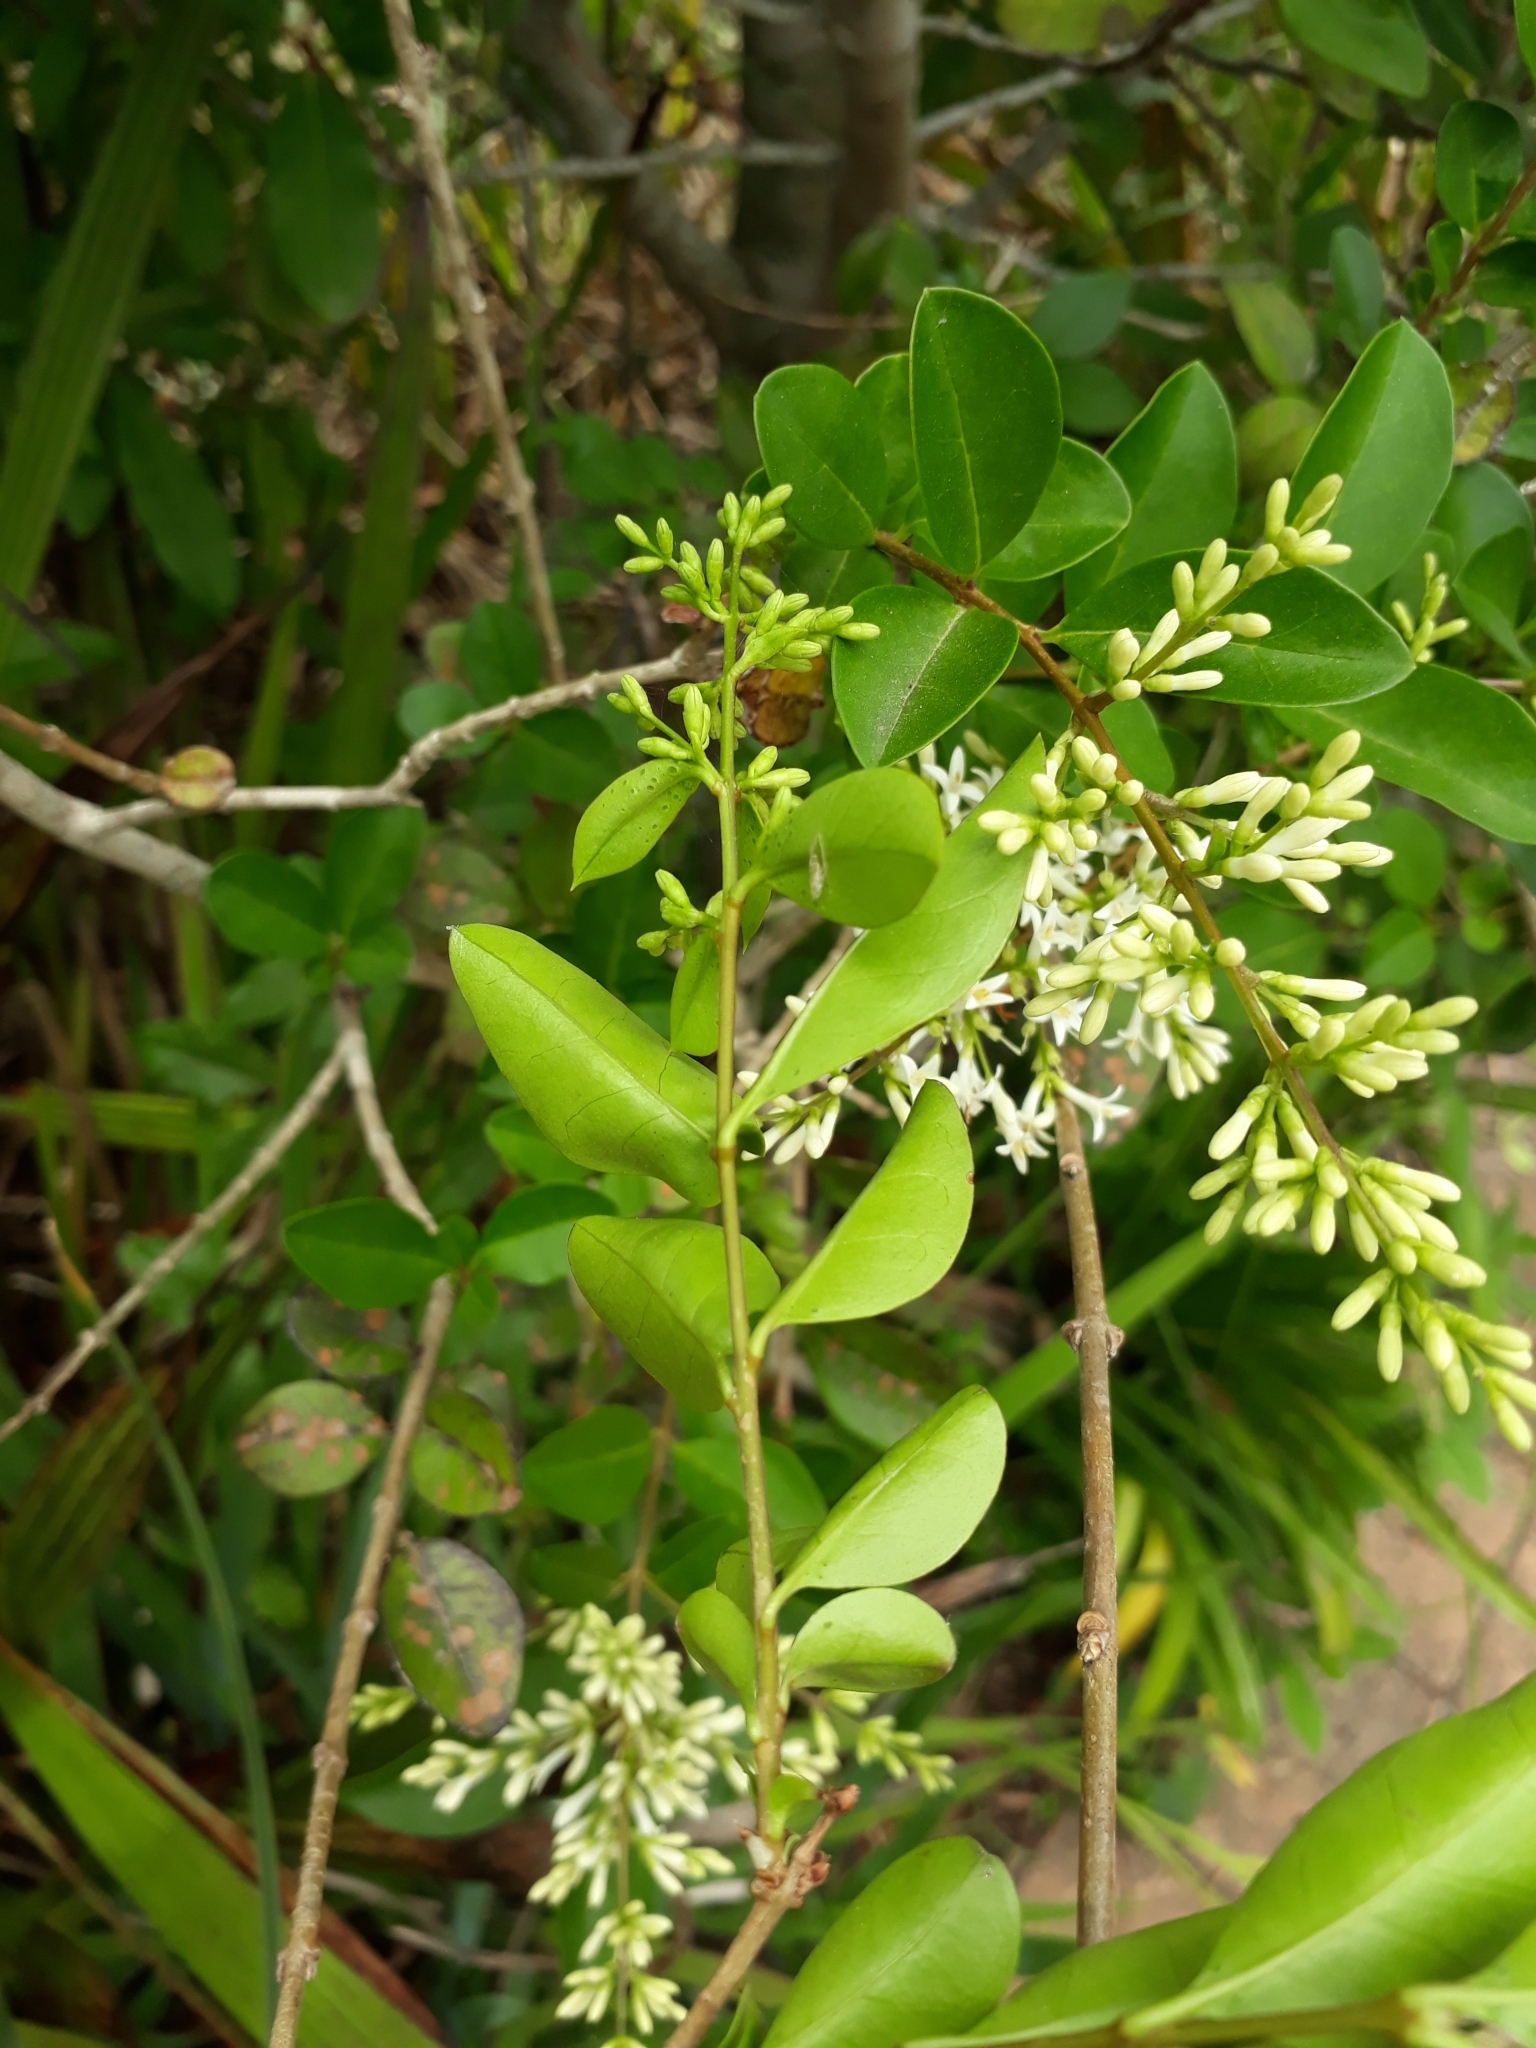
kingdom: Plantae
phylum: Tracheophyta
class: Magnoliopsida
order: Lamiales
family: Oleaceae
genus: Ligustrum
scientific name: Ligustrum ovalifolium
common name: California privet
